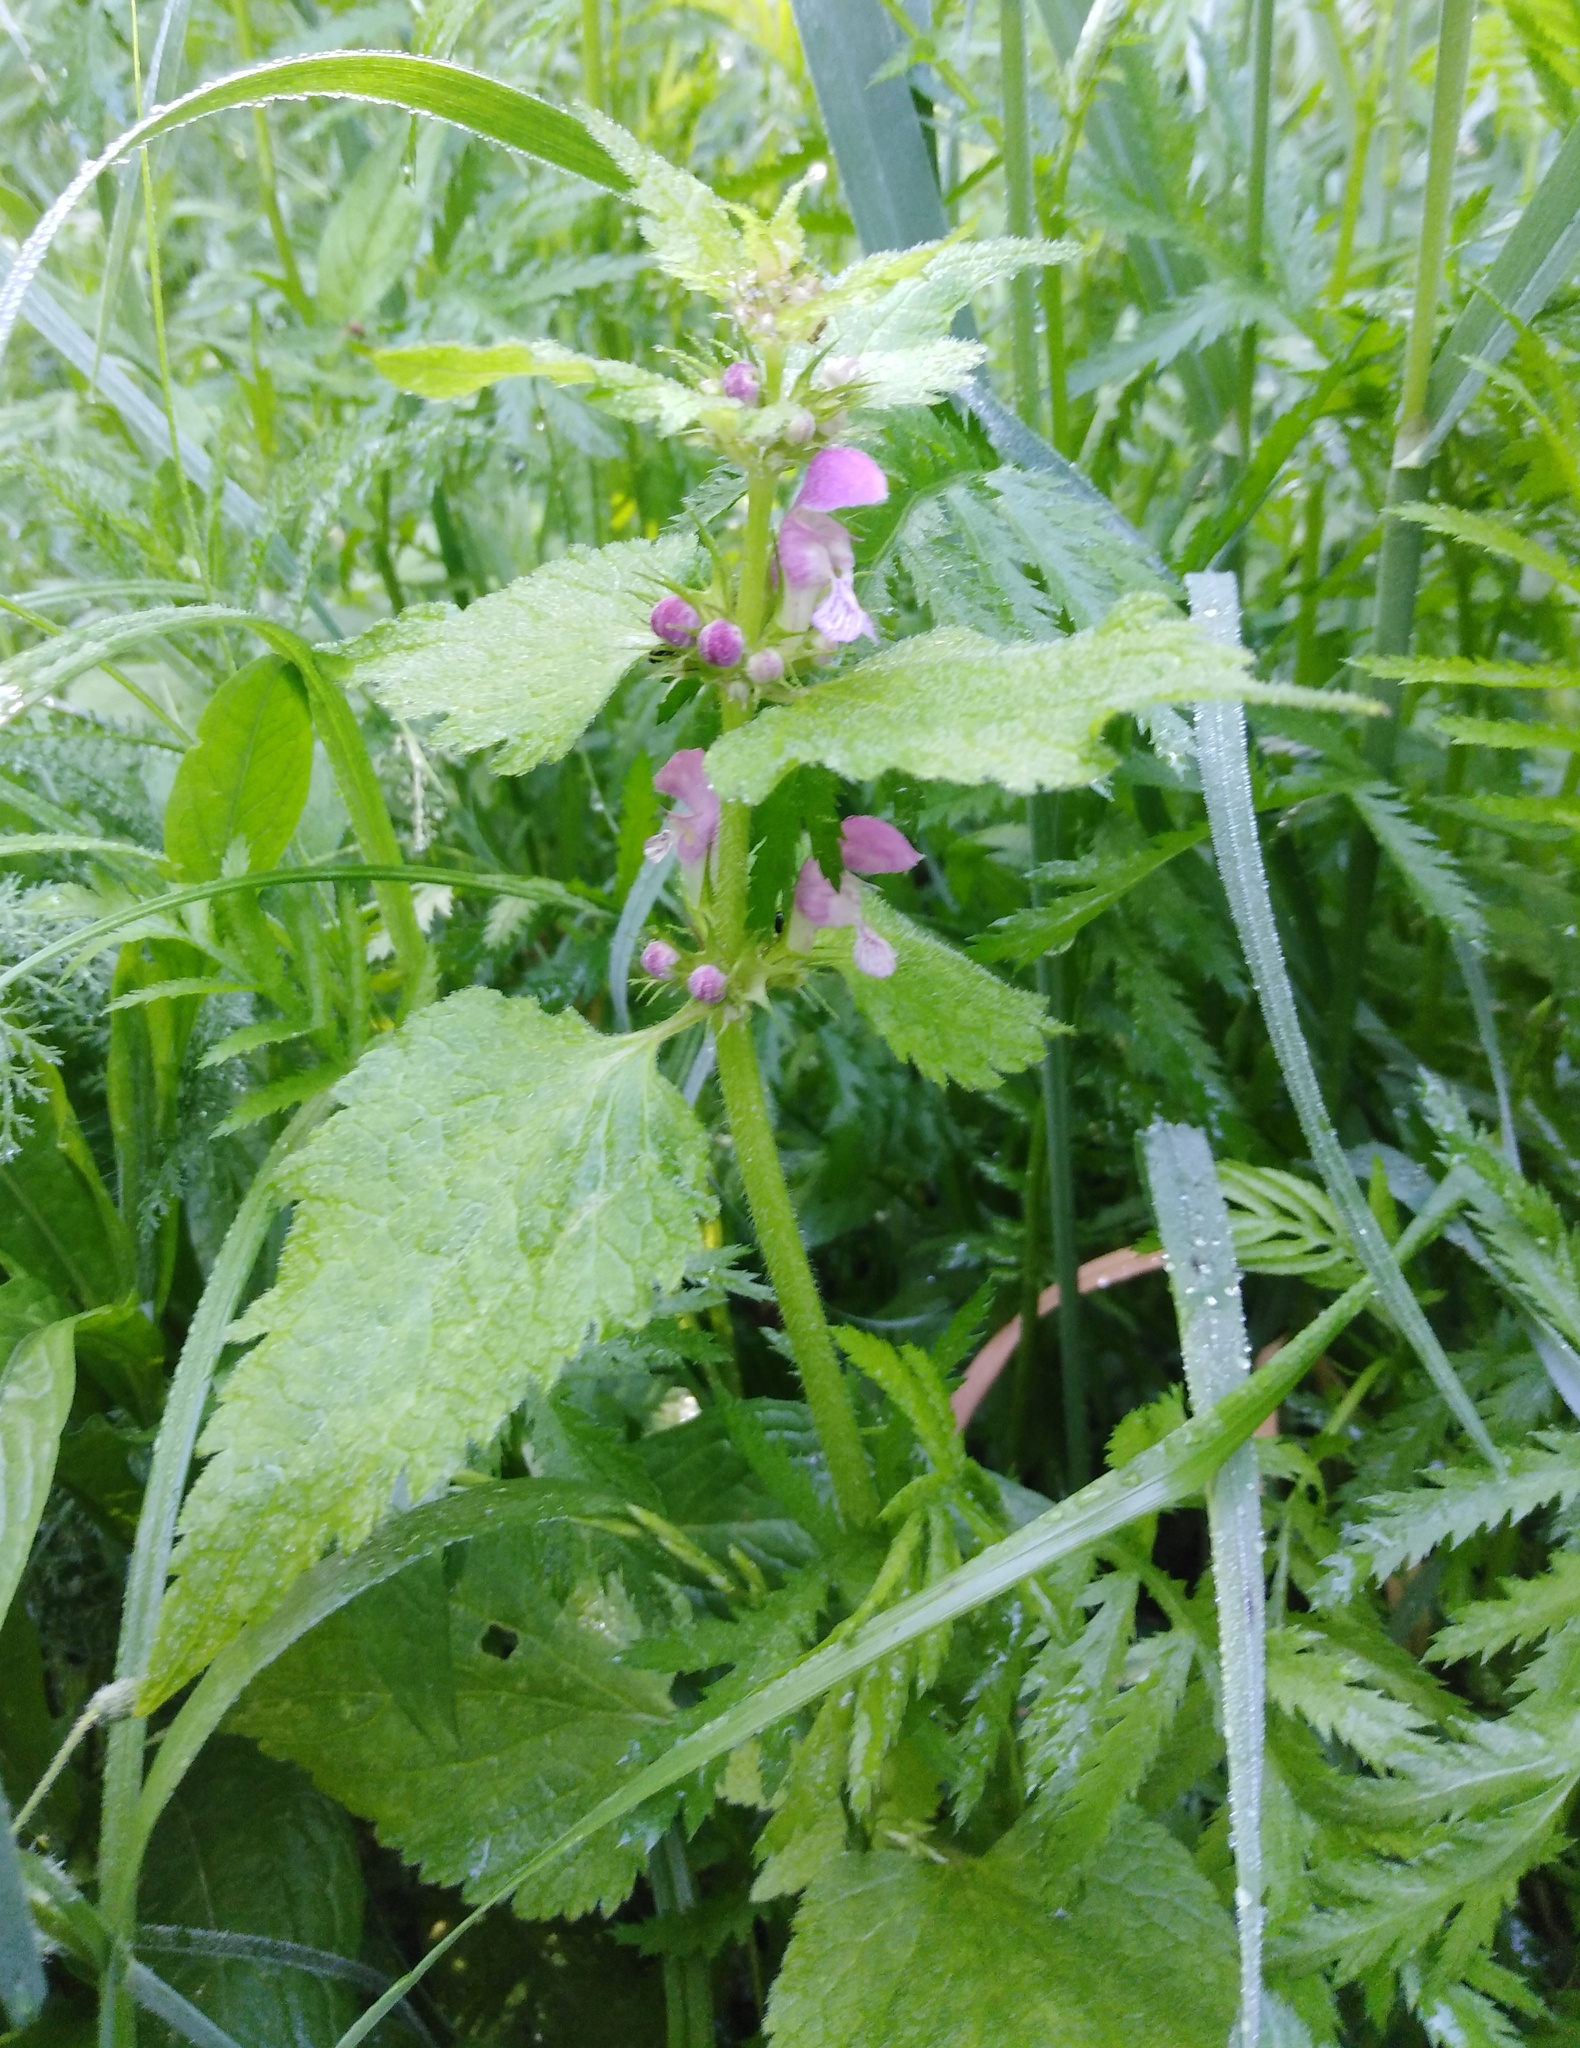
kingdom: Plantae
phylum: Tracheophyta
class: Magnoliopsida
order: Lamiales
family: Lamiaceae
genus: Lamium
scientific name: Lamium maculatum
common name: Spotted dead-nettle
